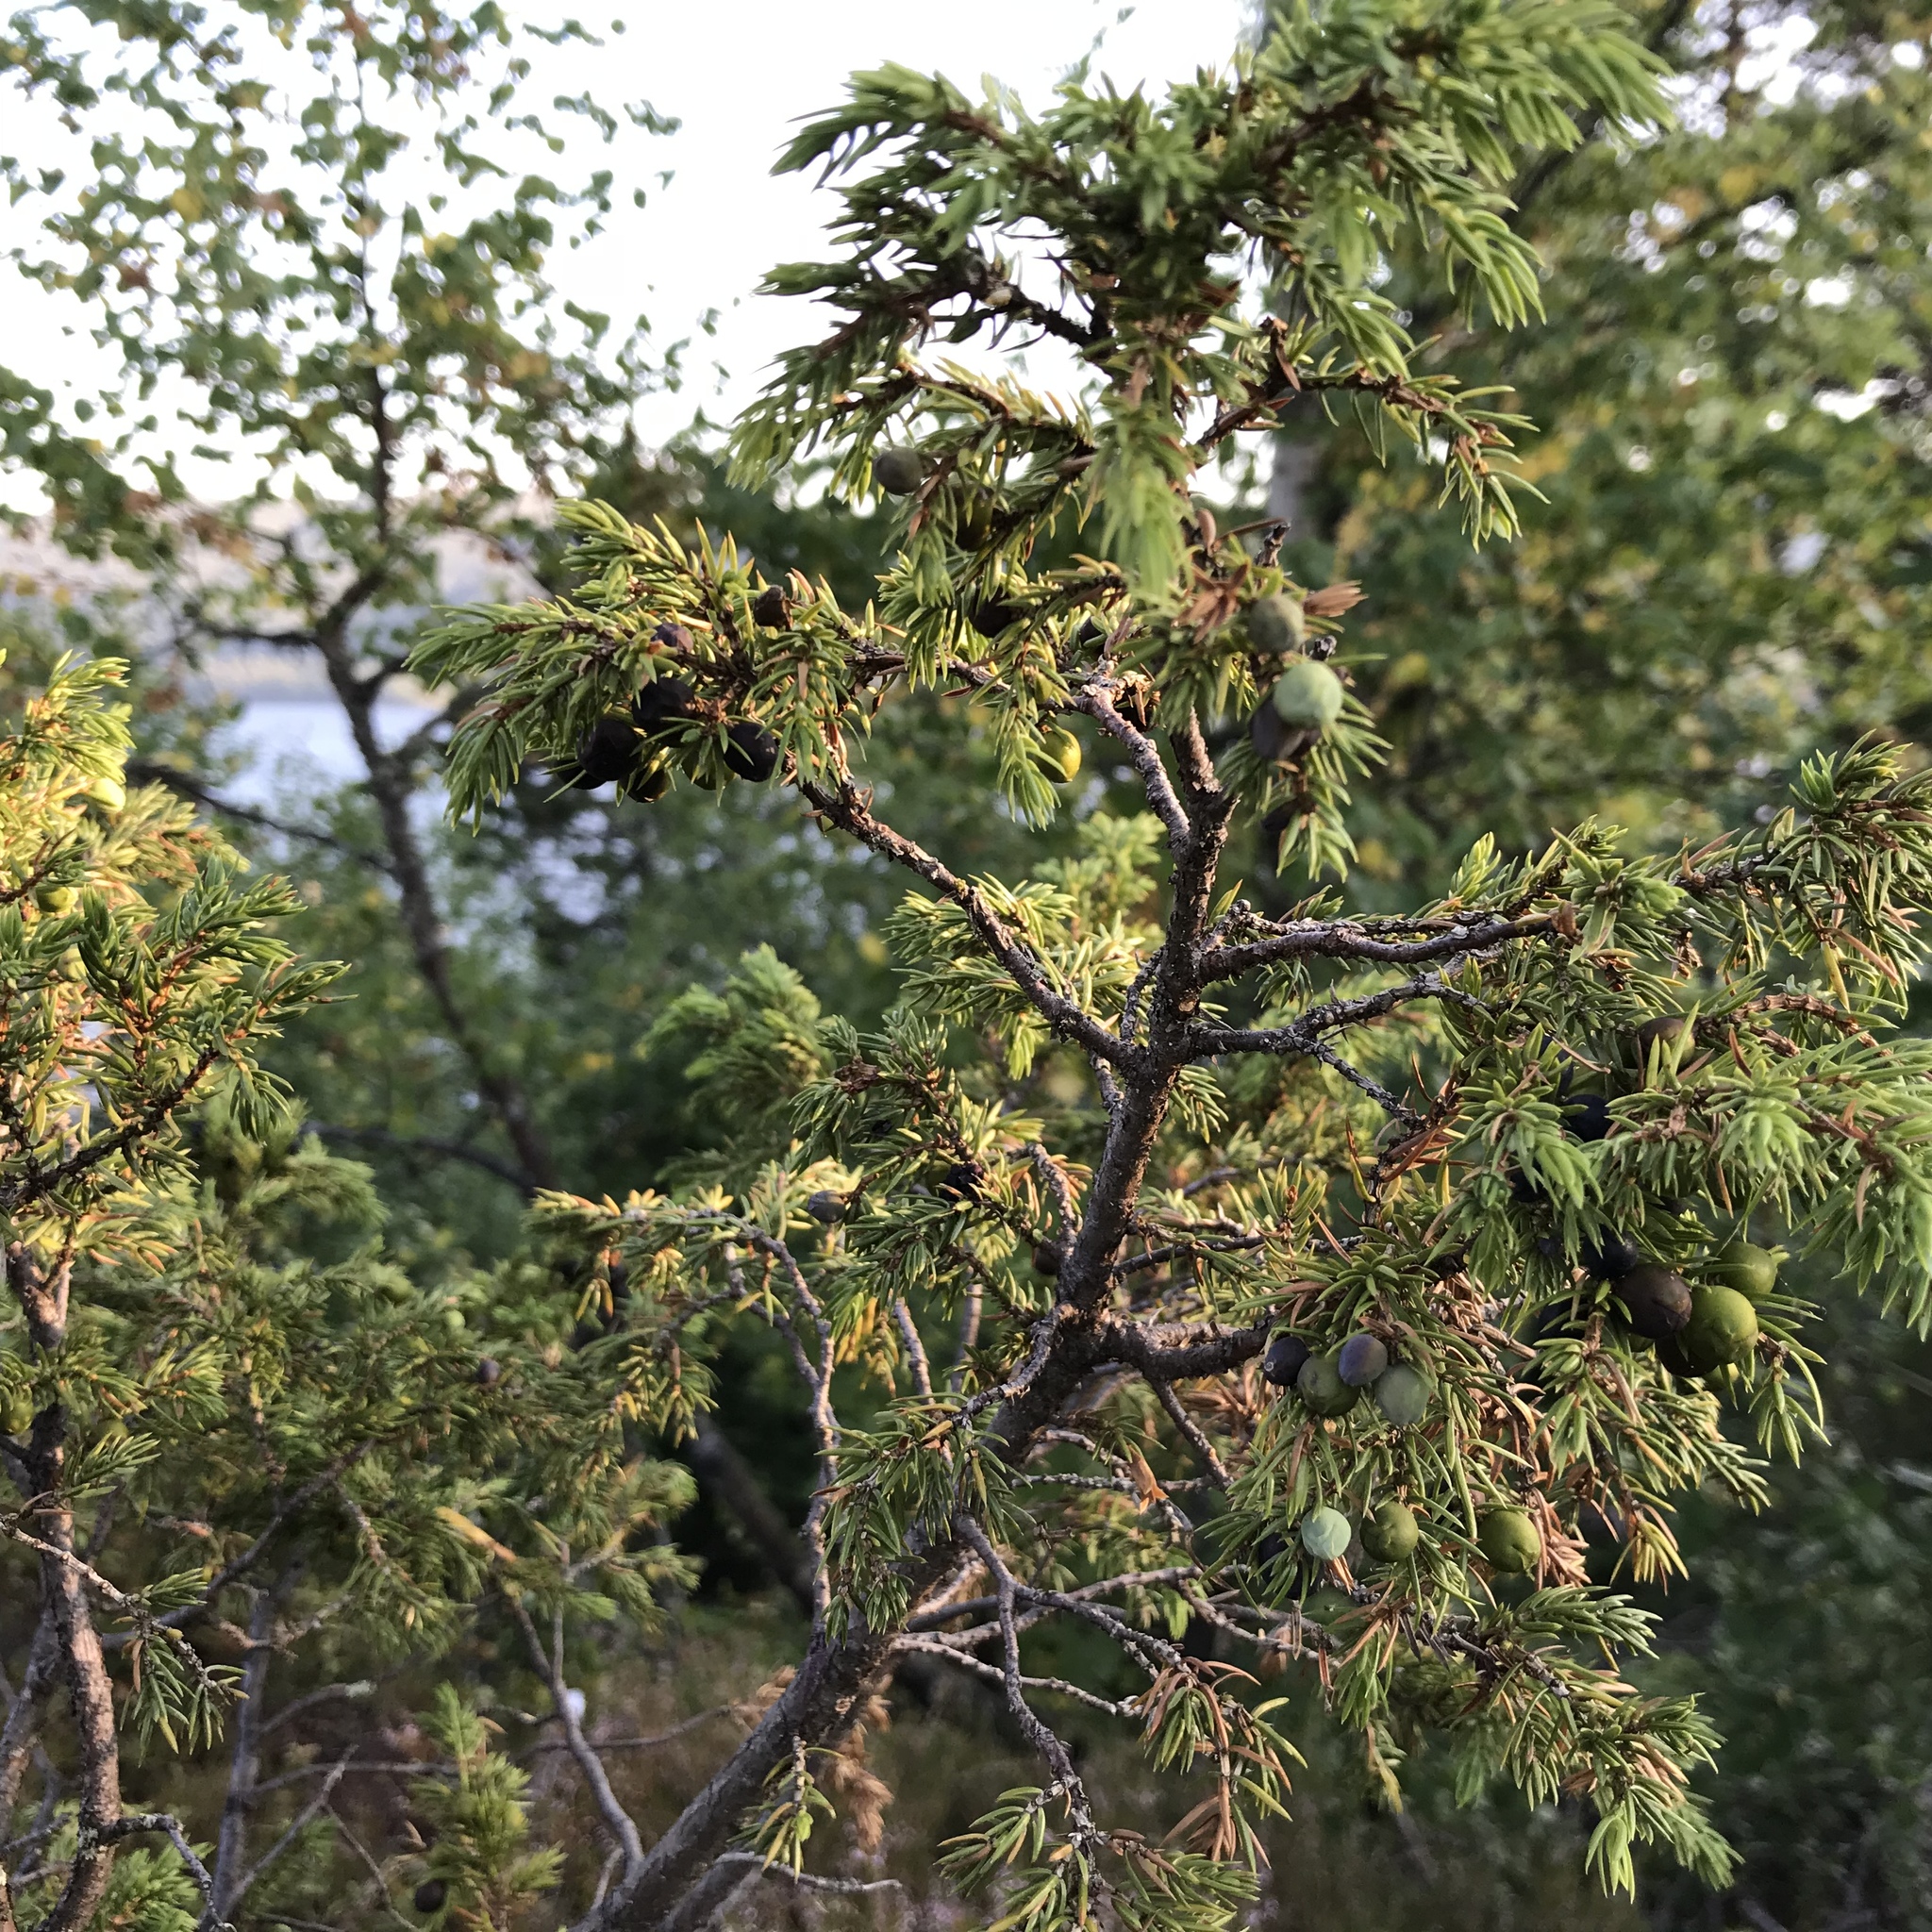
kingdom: Plantae
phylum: Tracheophyta
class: Pinopsida
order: Pinales
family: Cupressaceae
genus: Juniperus
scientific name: Juniperus communis
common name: Common juniper
